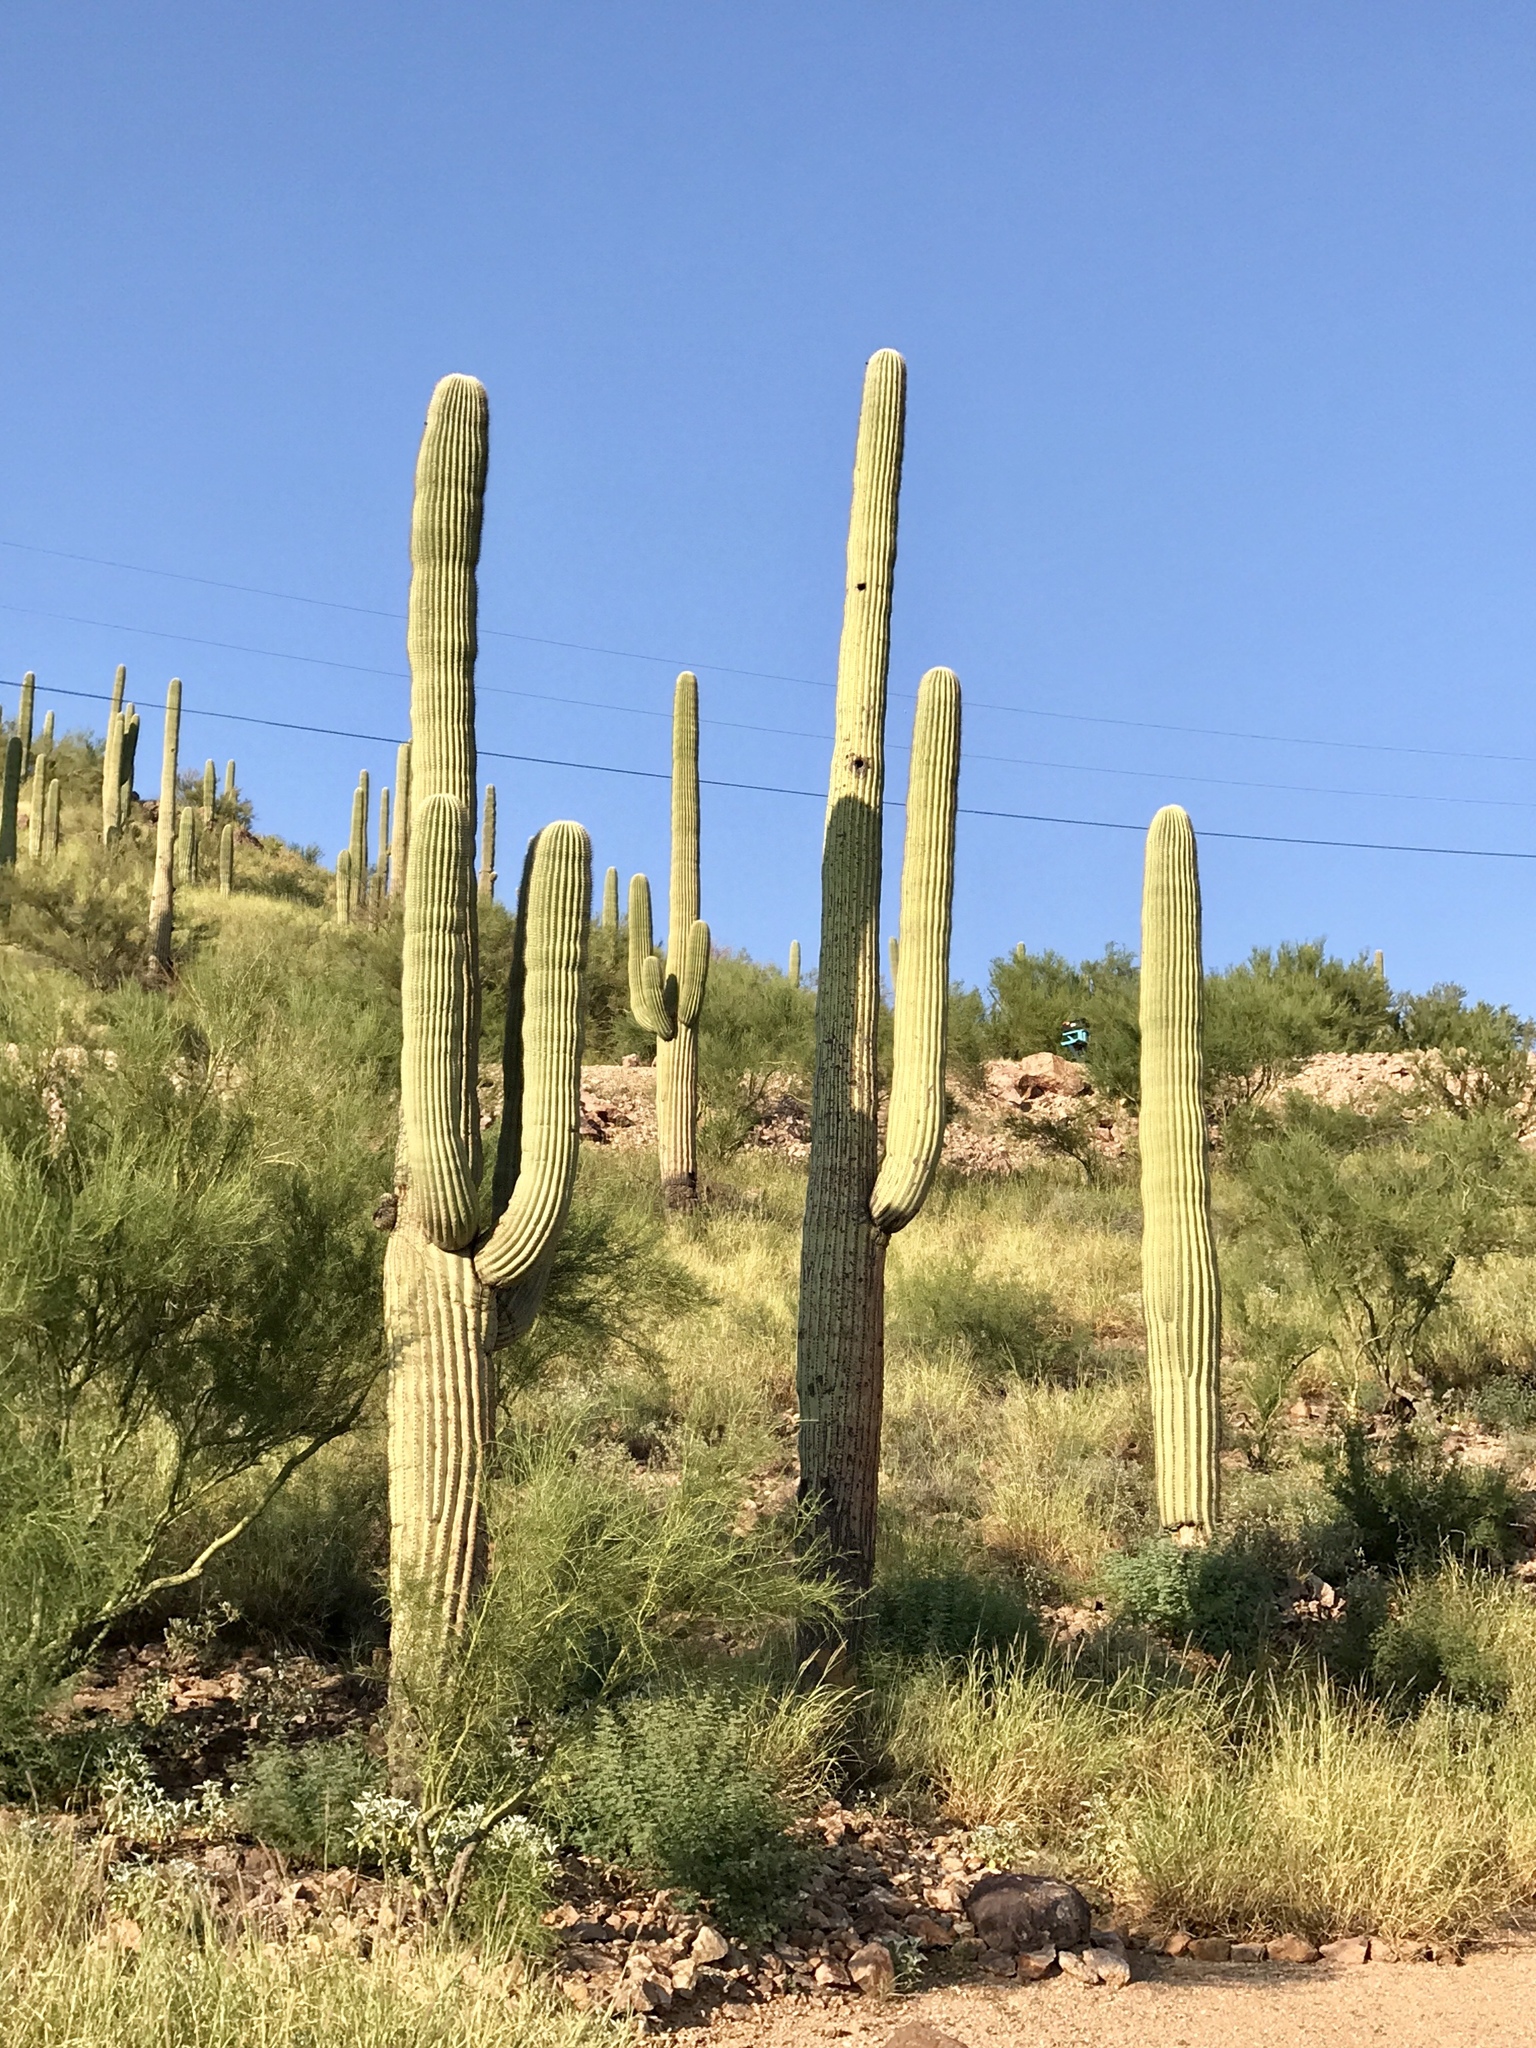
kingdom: Plantae
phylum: Tracheophyta
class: Magnoliopsida
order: Caryophyllales
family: Cactaceae
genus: Carnegiea
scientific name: Carnegiea gigantea
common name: Saguaro
